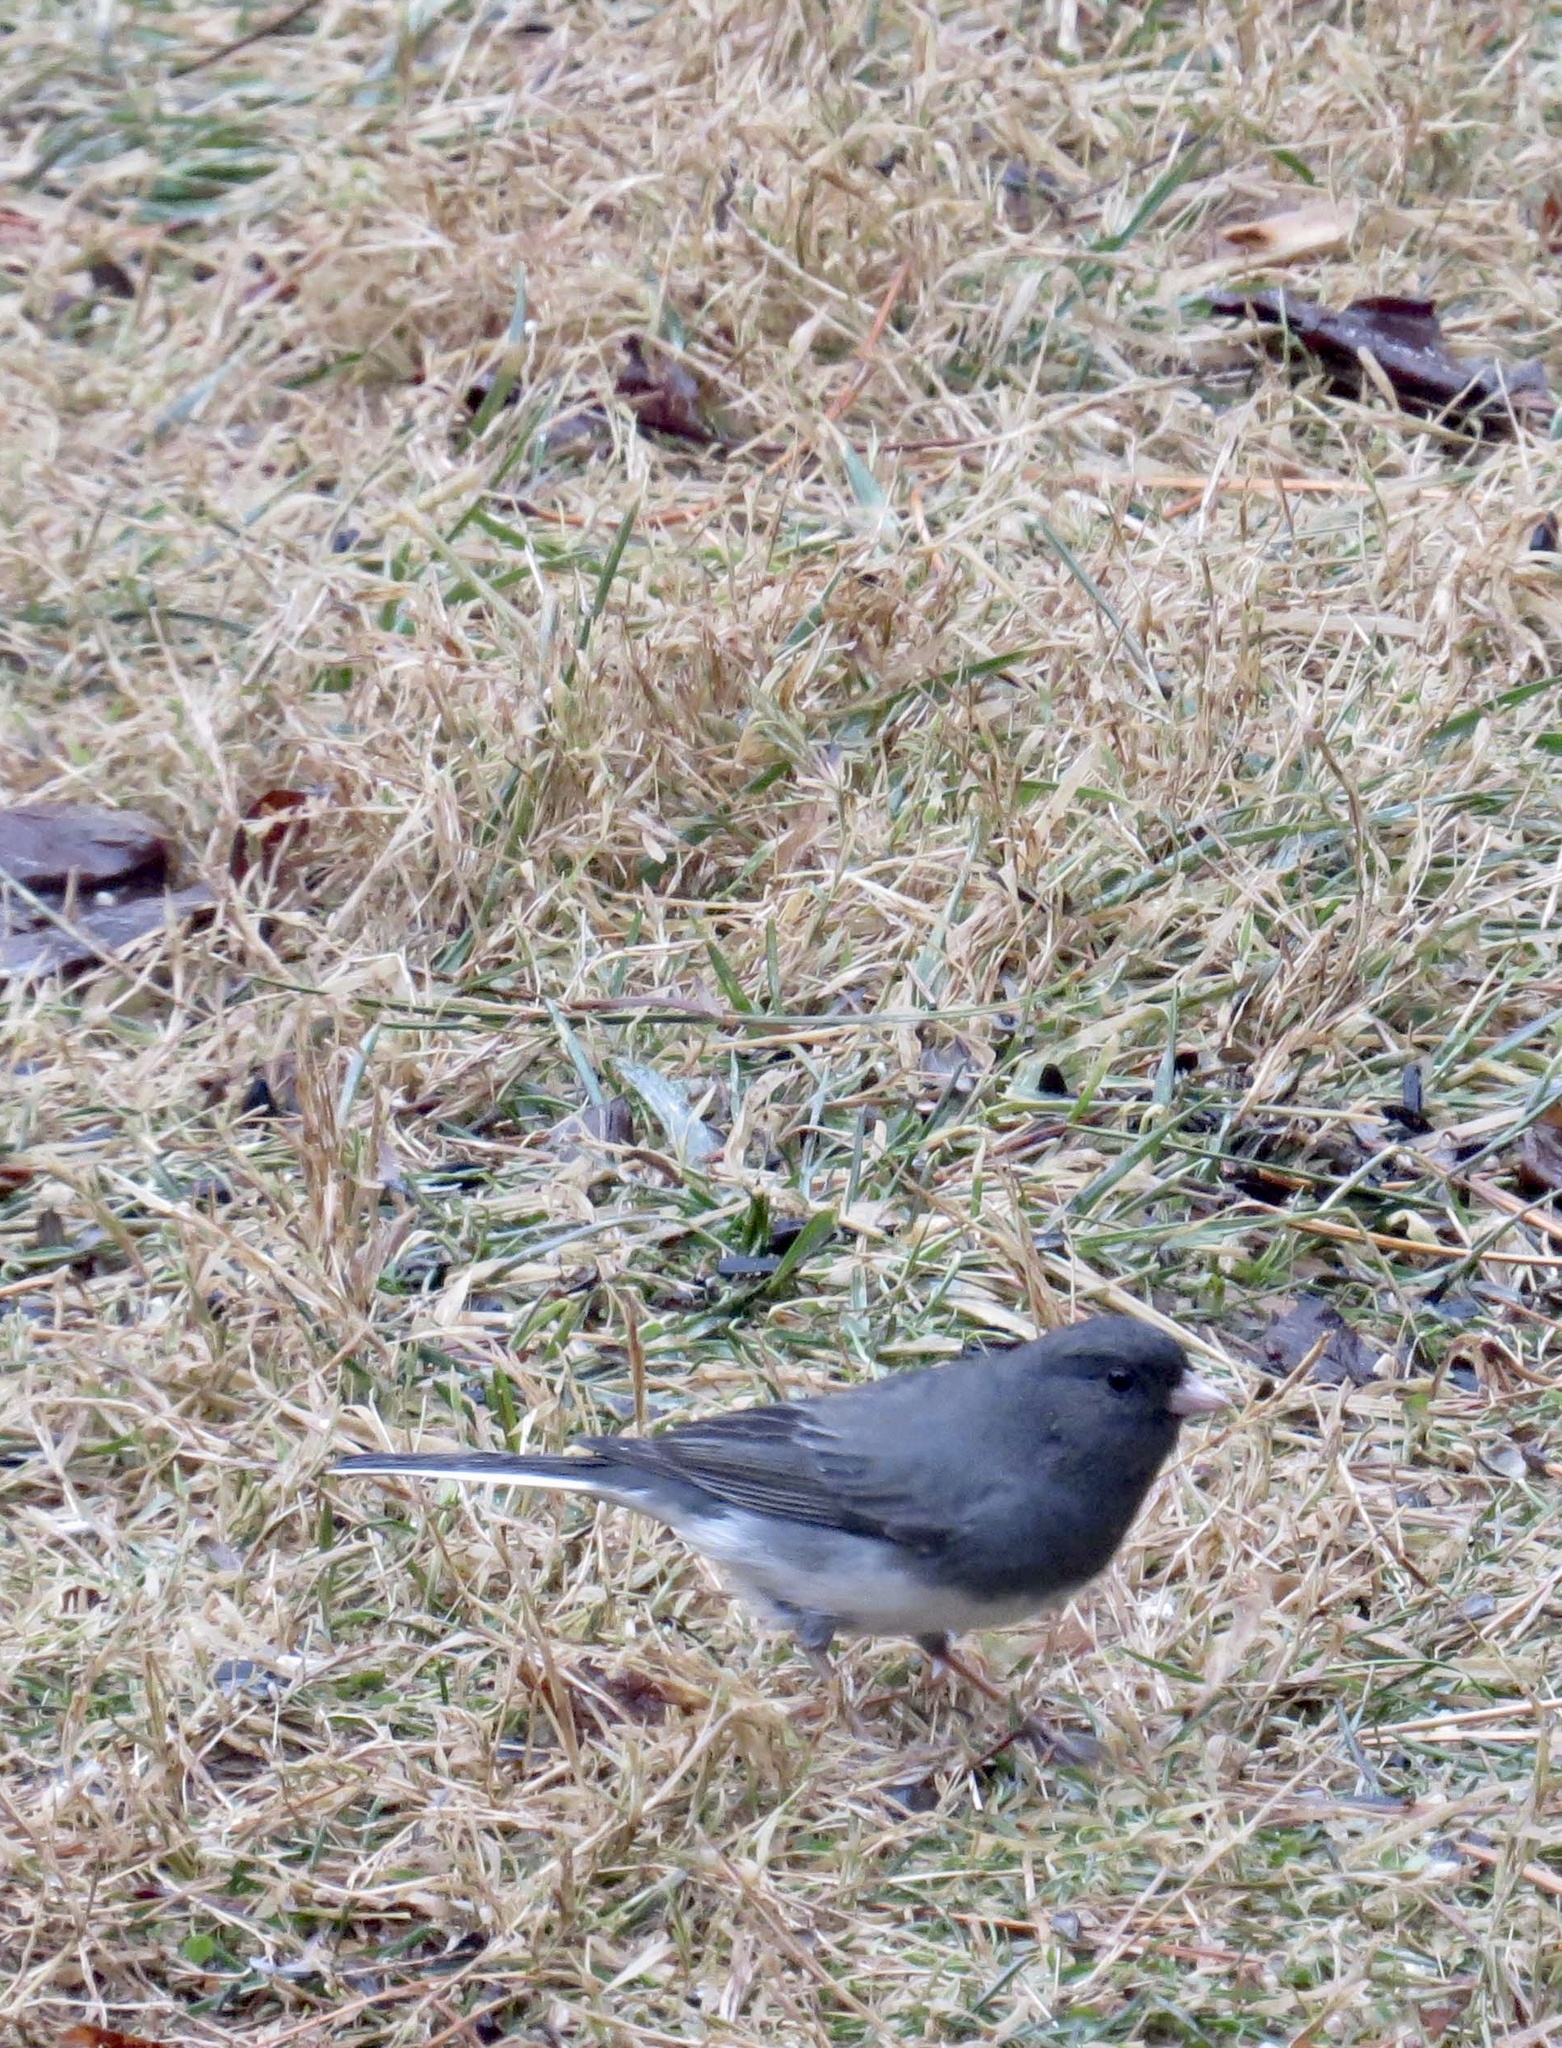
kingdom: Animalia
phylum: Chordata
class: Aves
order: Passeriformes
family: Passerellidae
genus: Junco
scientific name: Junco hyemalis
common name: Dark-eyed junco
